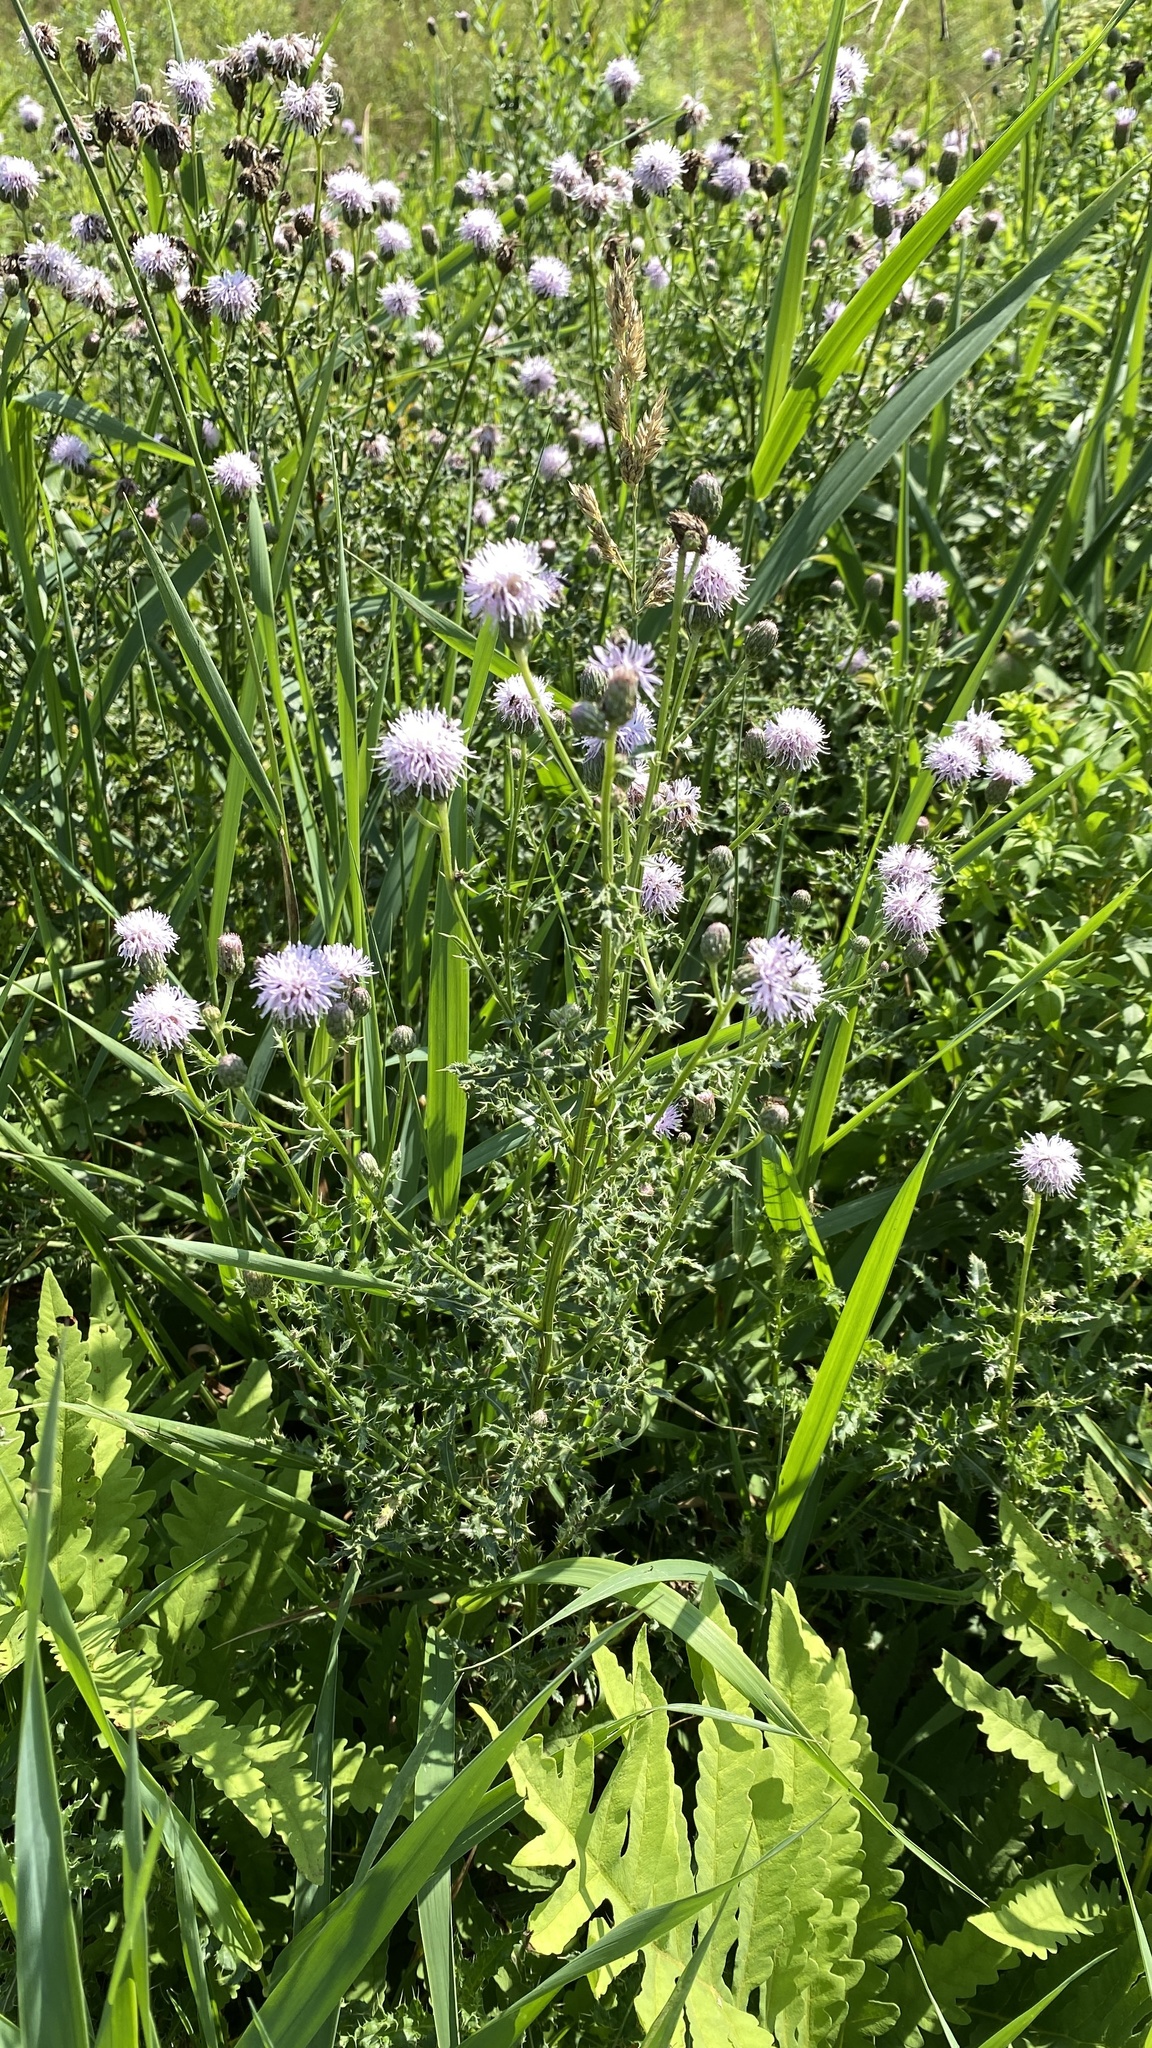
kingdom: Plantae
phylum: Tracheophyta
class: Magnoliopsida
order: Asterales
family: Asteraceae
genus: Cirsium
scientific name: Cirsium arvense
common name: Creeping thistle
